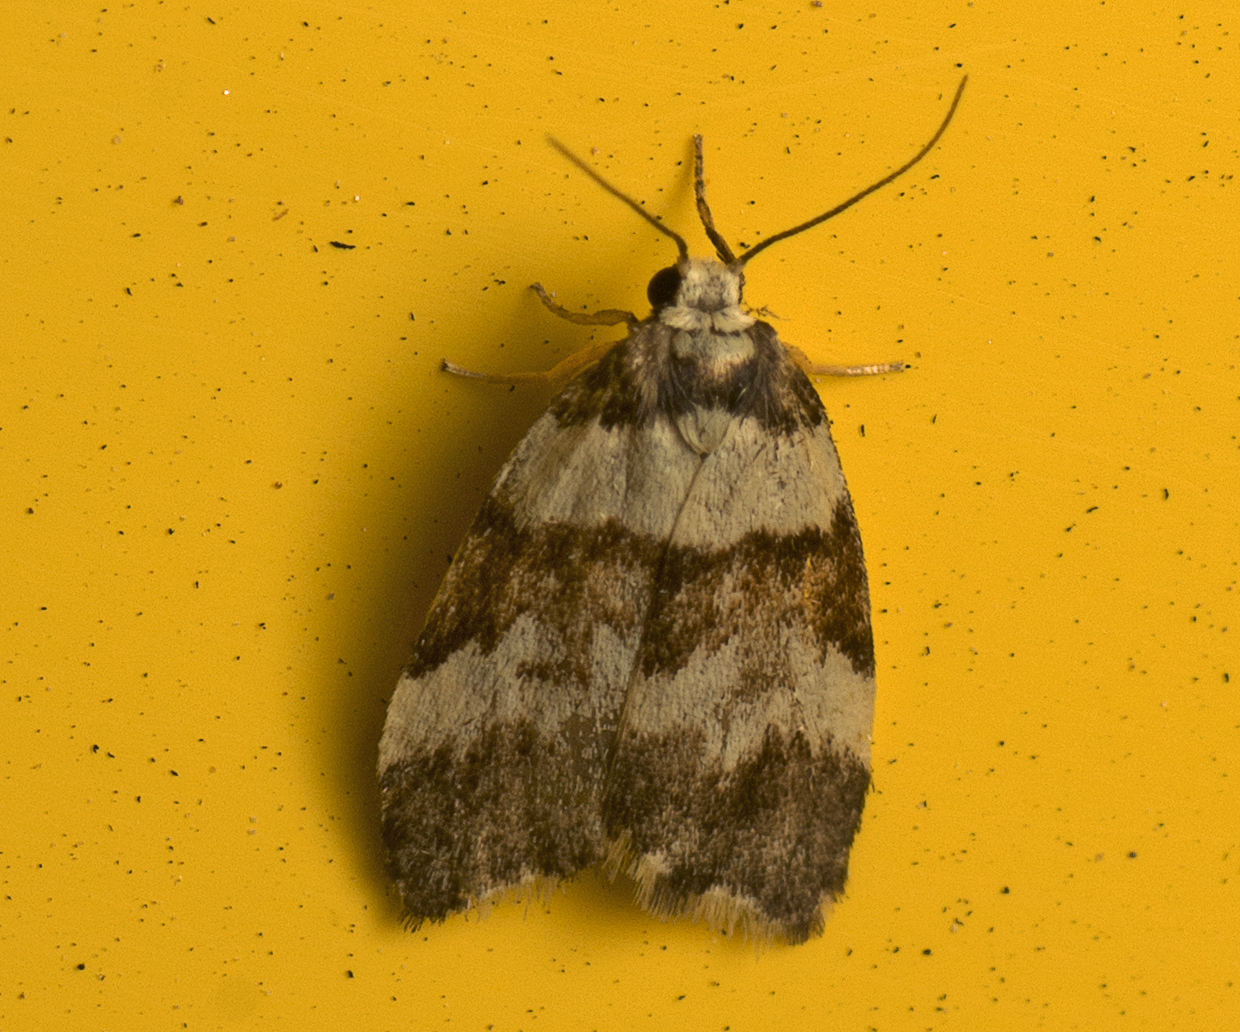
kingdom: Animalia
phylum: Arthropoda
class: Insecta
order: Lepidoptera
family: Erebidae
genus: Halone
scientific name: Halone sejuncta
